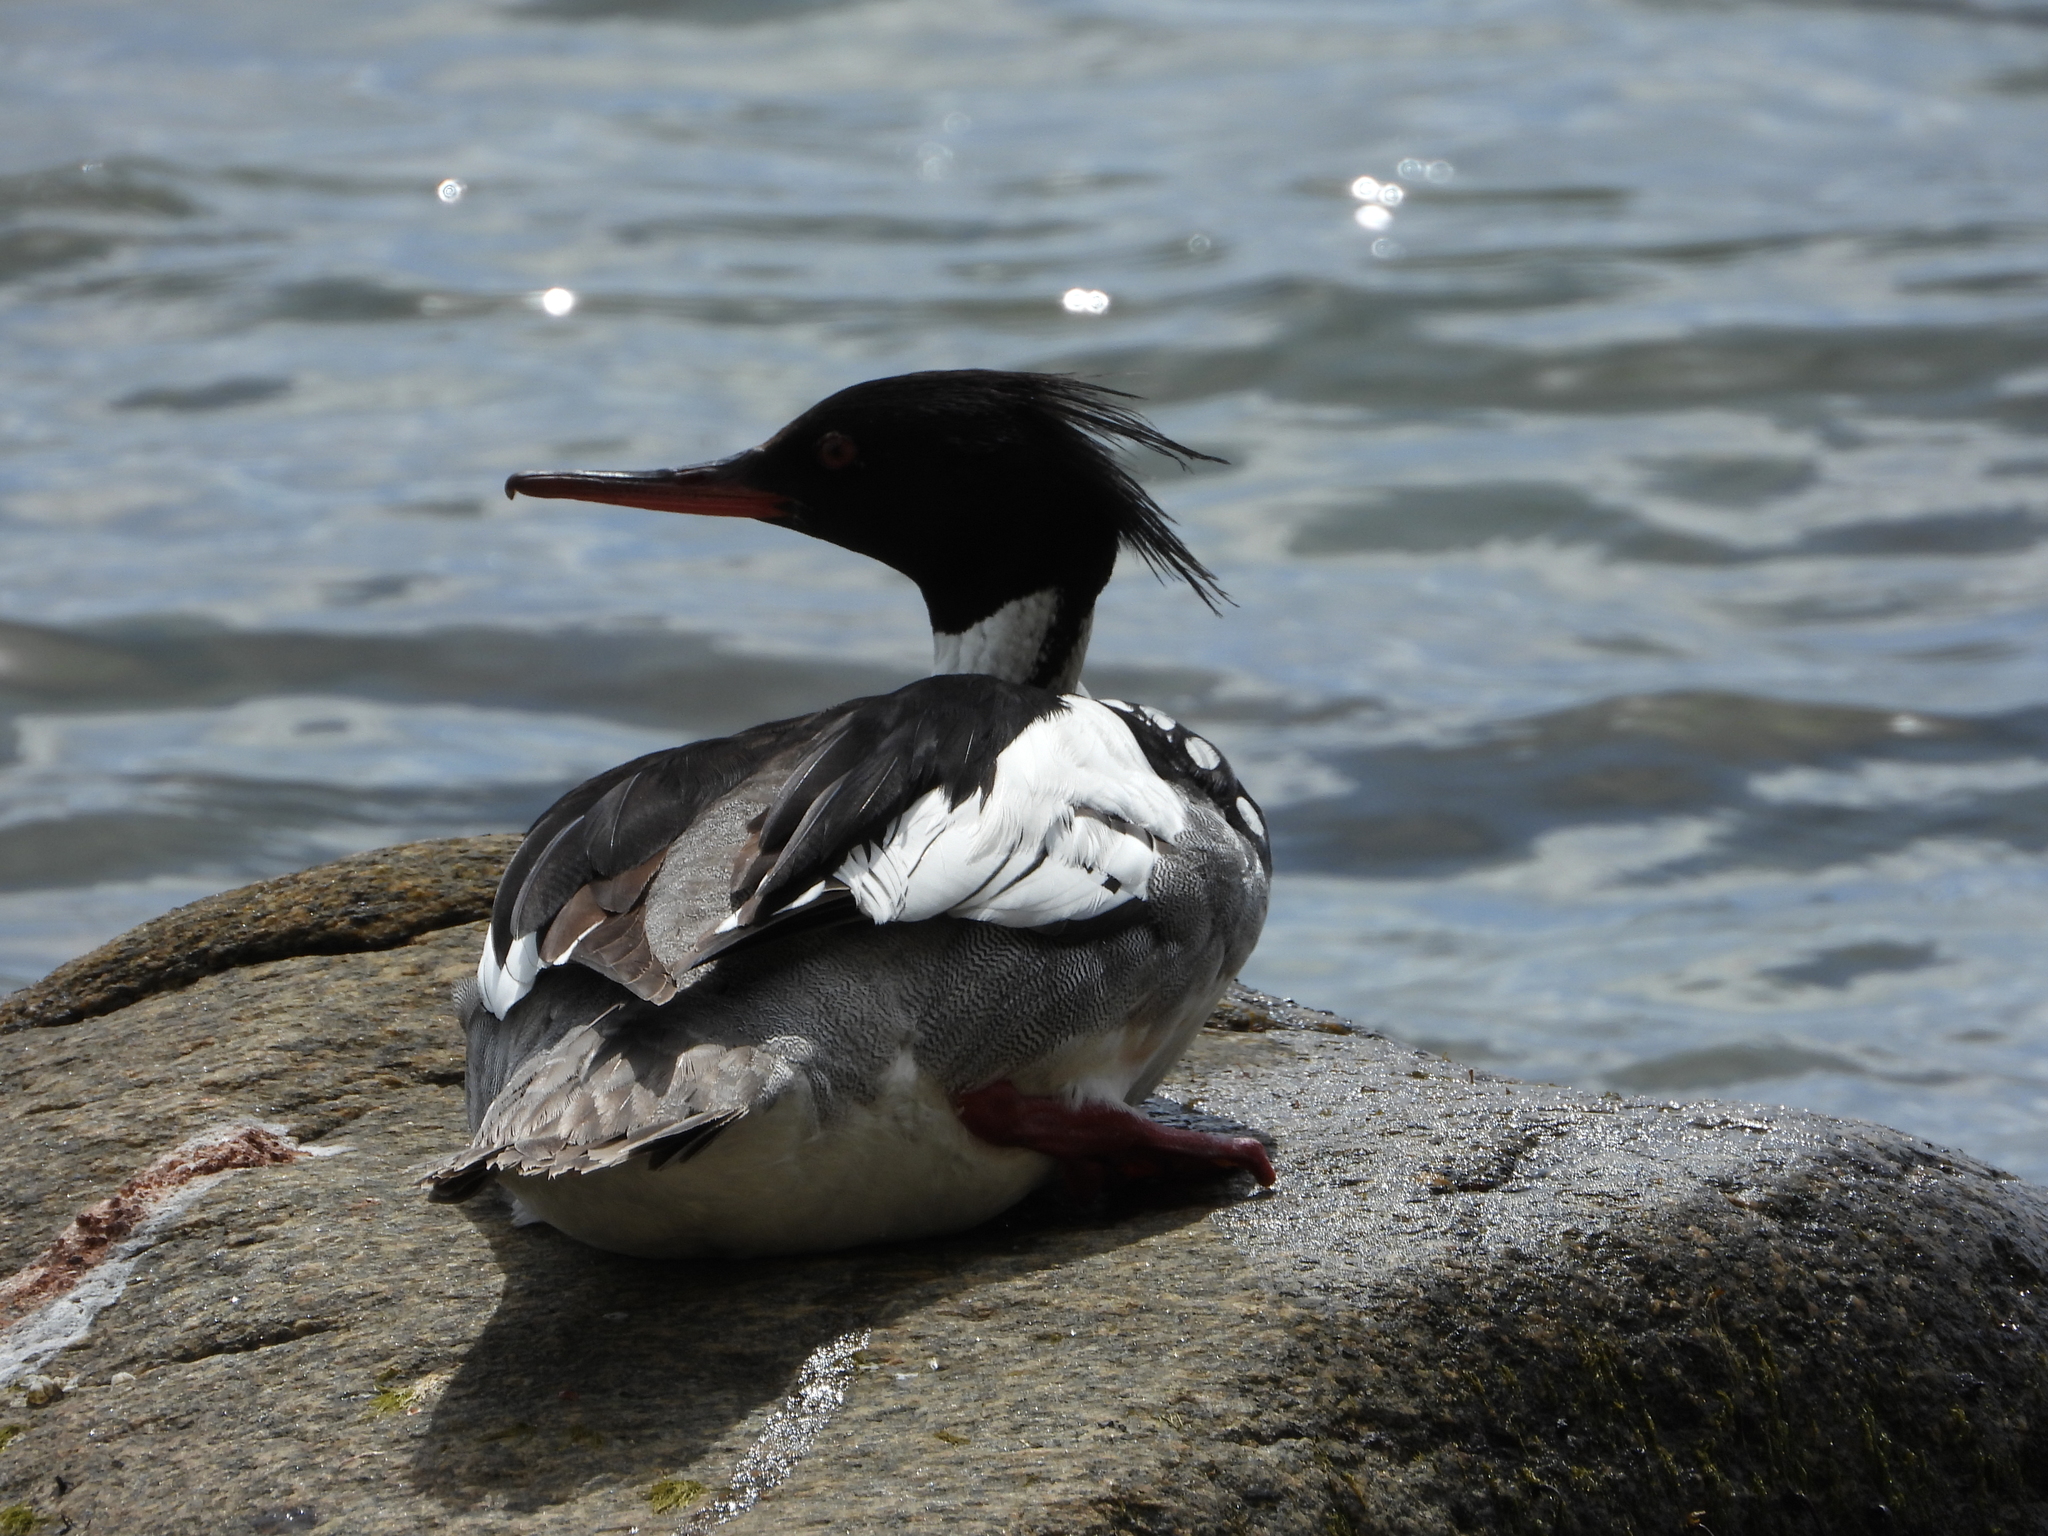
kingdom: Animalia
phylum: Chordata
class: Aves
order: Anseriformes
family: Anatidae
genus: Mergus
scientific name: Mergus serrator
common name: Red-breasted merganser
